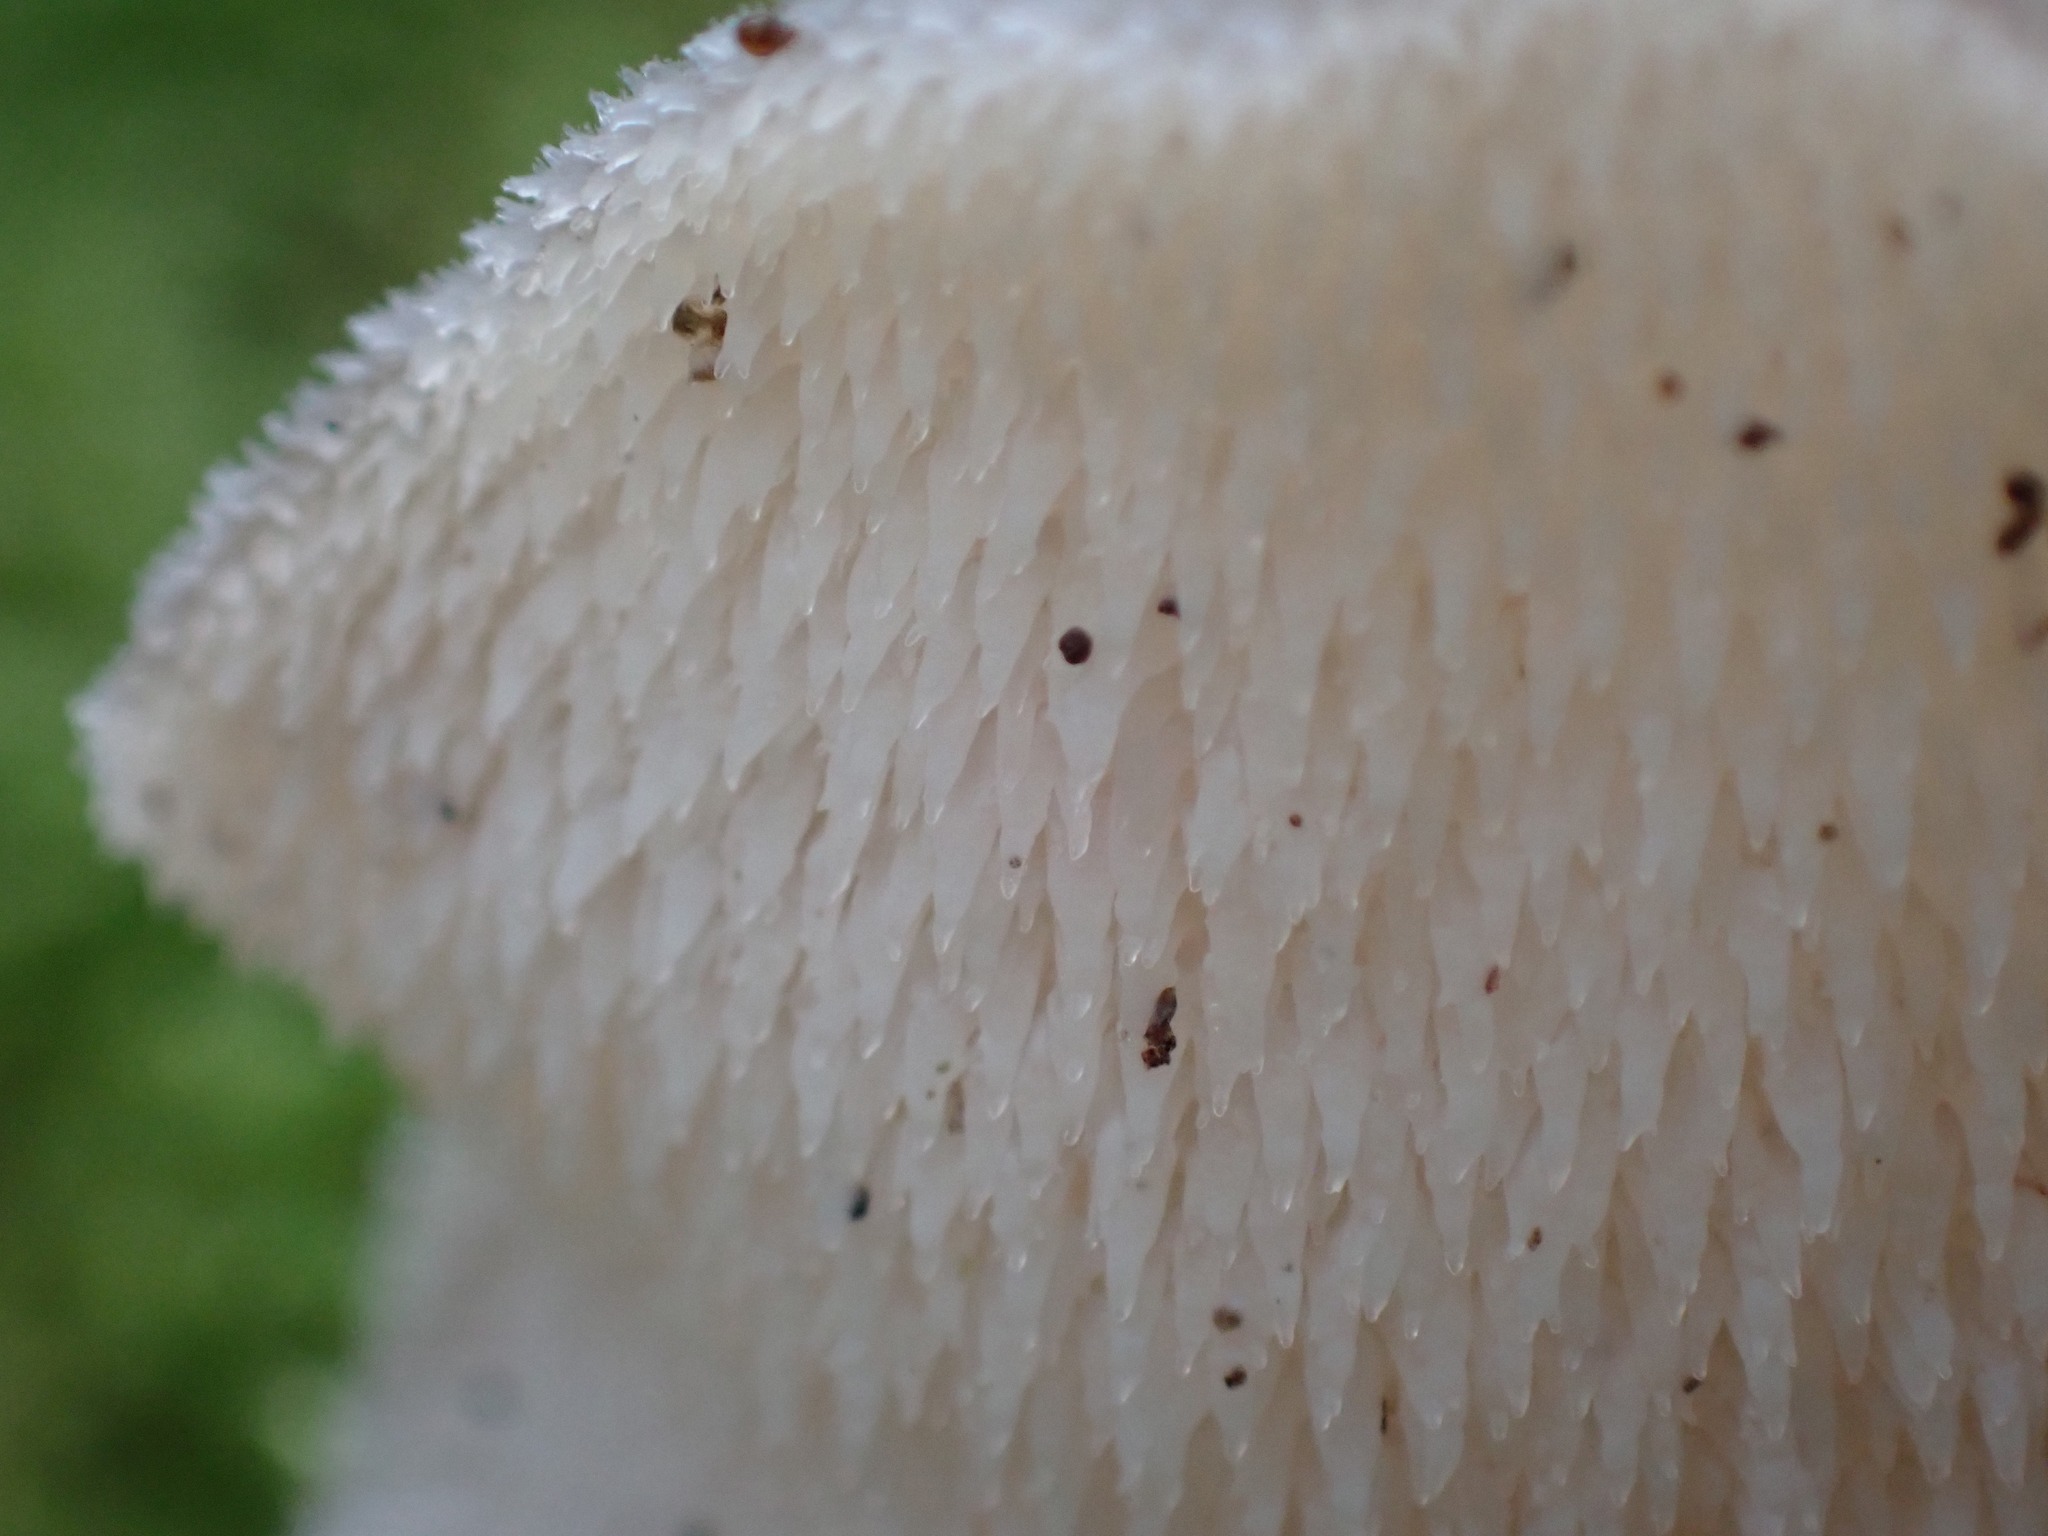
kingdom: Fungi
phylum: Basidiomycota
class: Agaricomycetes
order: Auriculariales
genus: Pseudohydnum
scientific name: Pseudohydnum gelatinosum
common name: Jelly tongue
